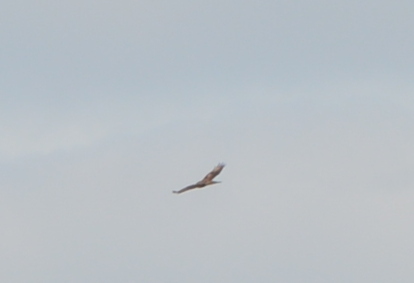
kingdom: Animalia
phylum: Chordata
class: Aves
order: Accipitriformes
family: Accipitridae
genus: Buteo
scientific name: Buteo buteo
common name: Common buzzard
